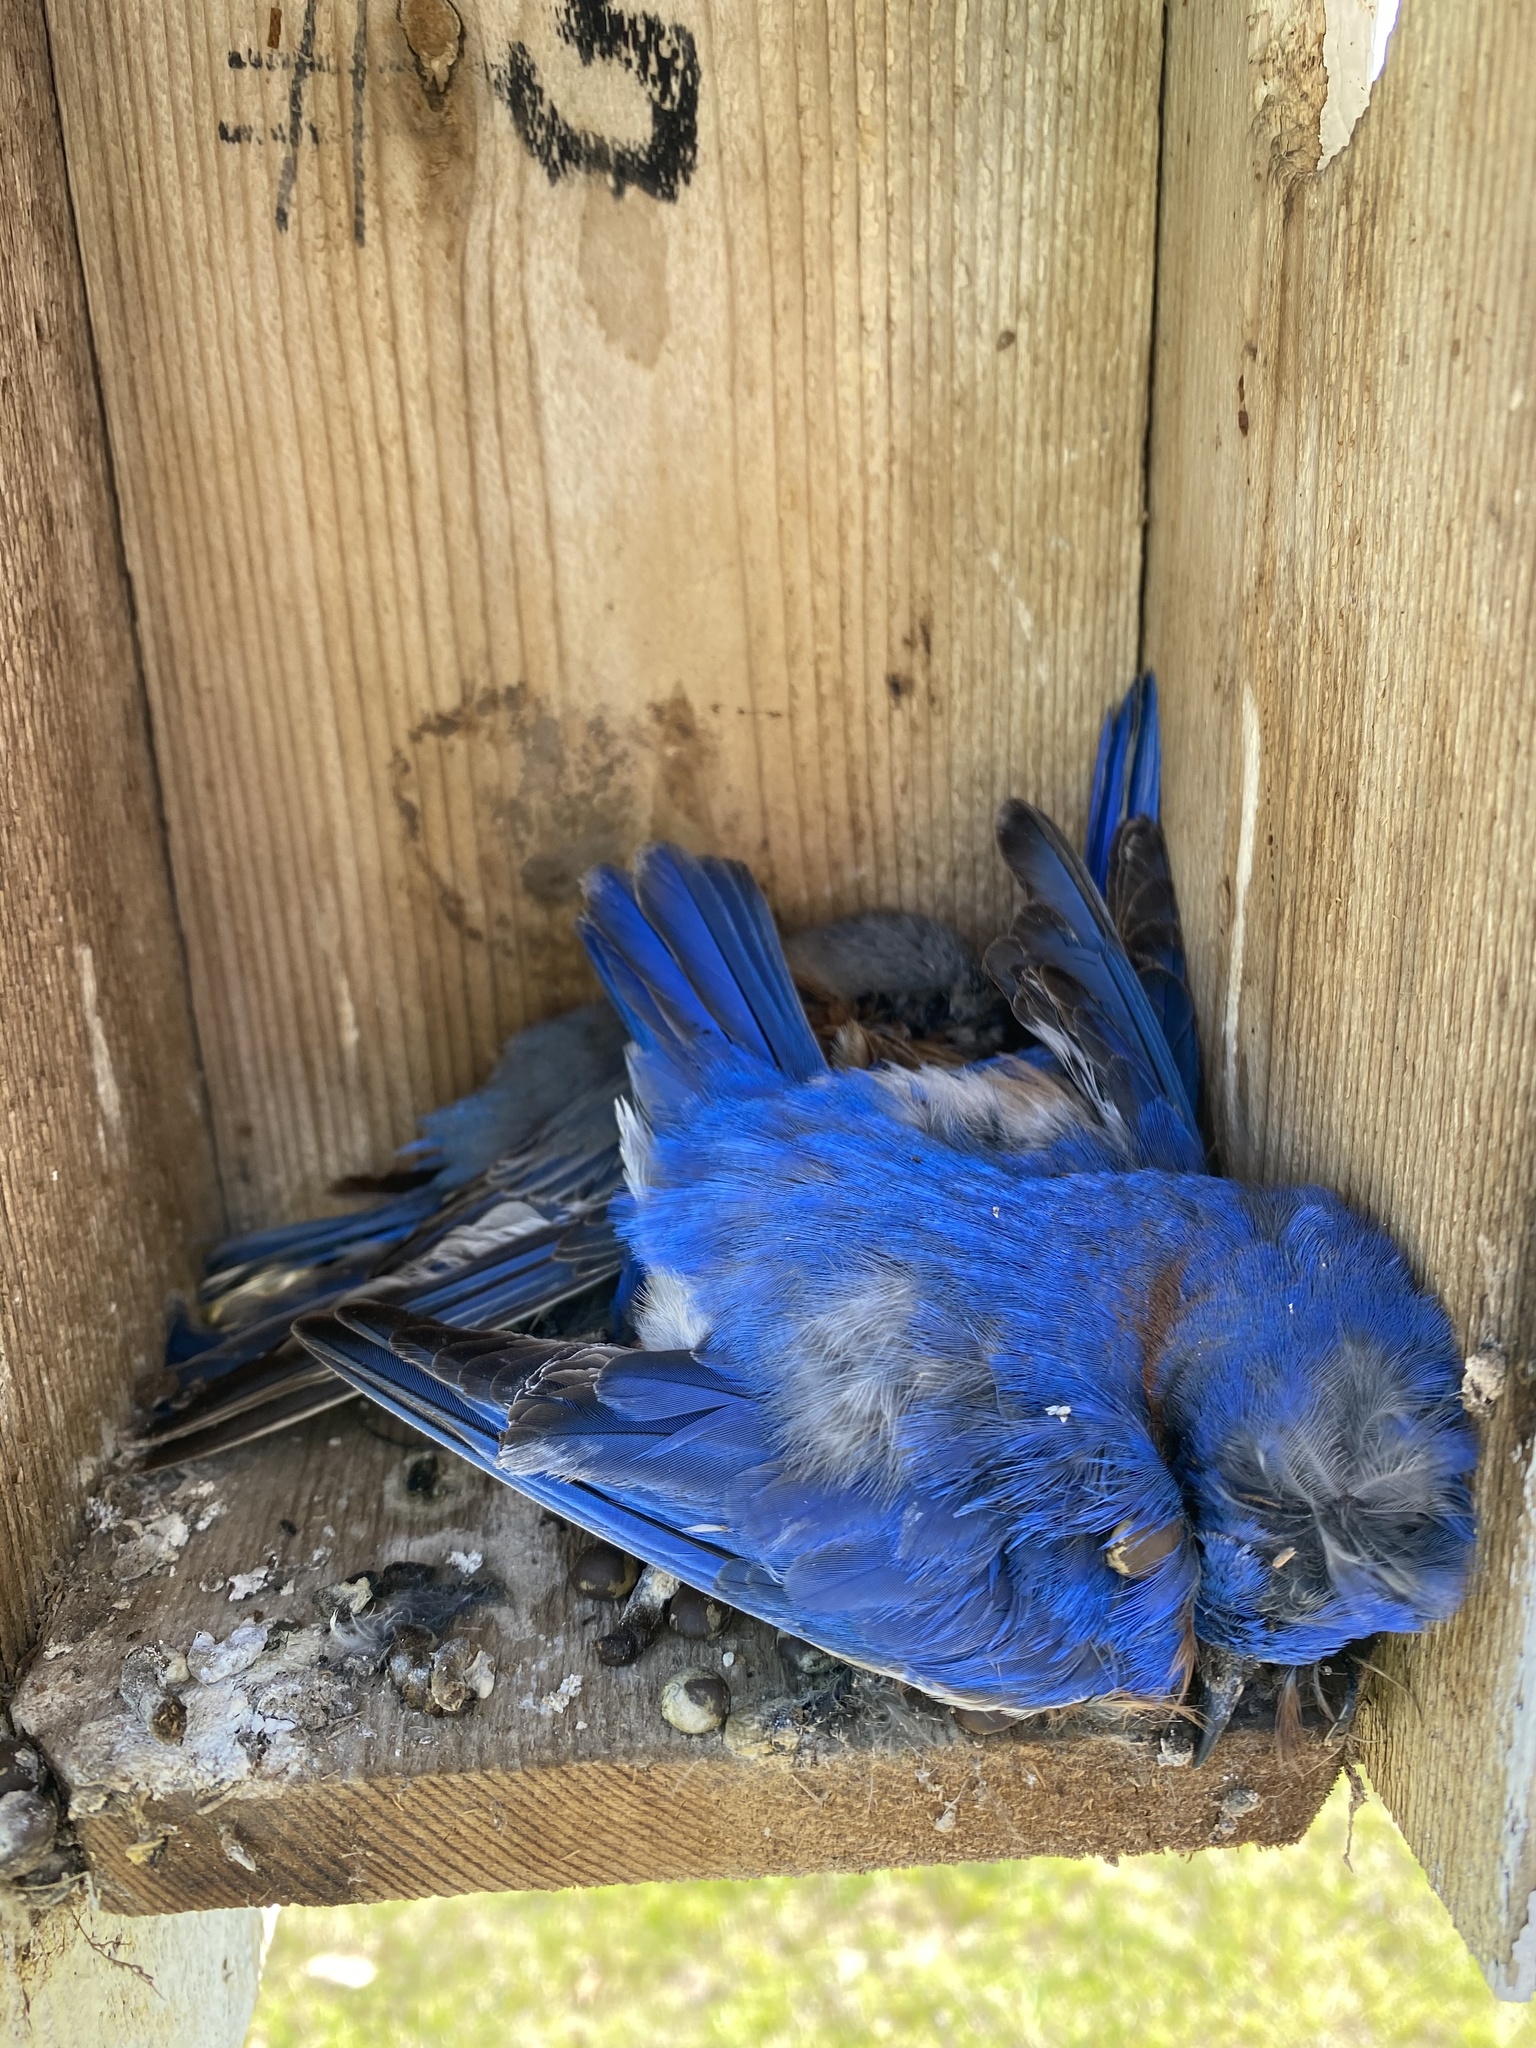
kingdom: Animalia
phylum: Chordata
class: Aves
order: Passeriformes
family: Turdidae
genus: Sialia
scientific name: Sialia sialis
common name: Eastern bluebird
